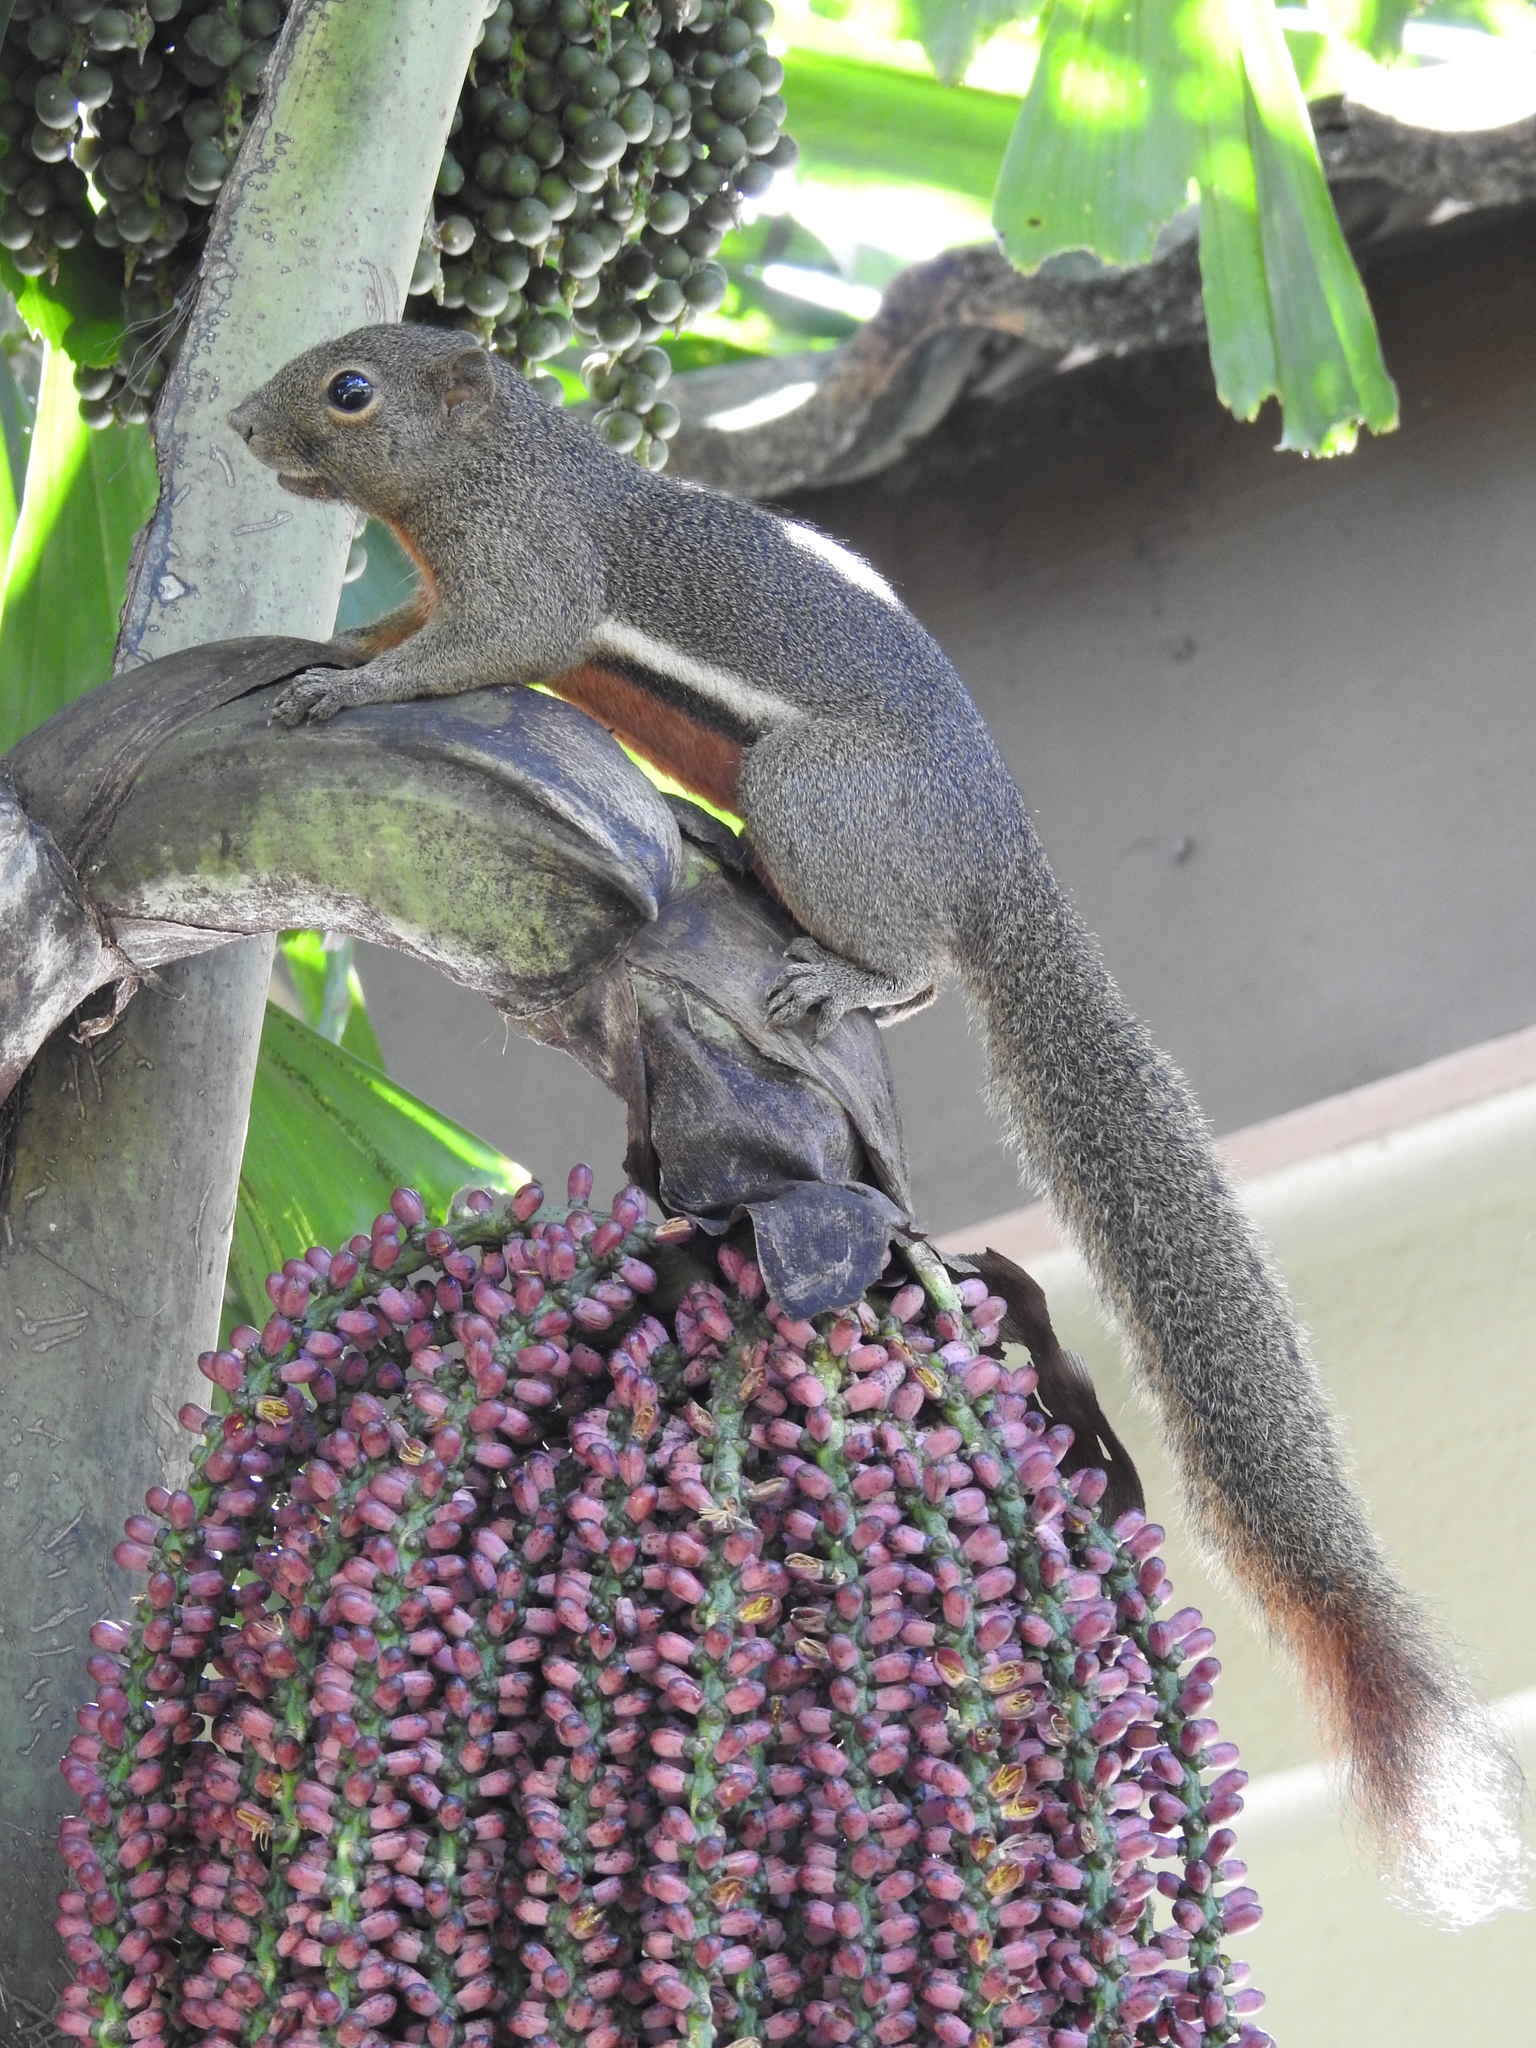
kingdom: Animalia
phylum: Chordata
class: Mammalia
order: Rodentia
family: Sciuridae
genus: Callosciurus
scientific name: Callosciurus notatus
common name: Plantain squirrel
